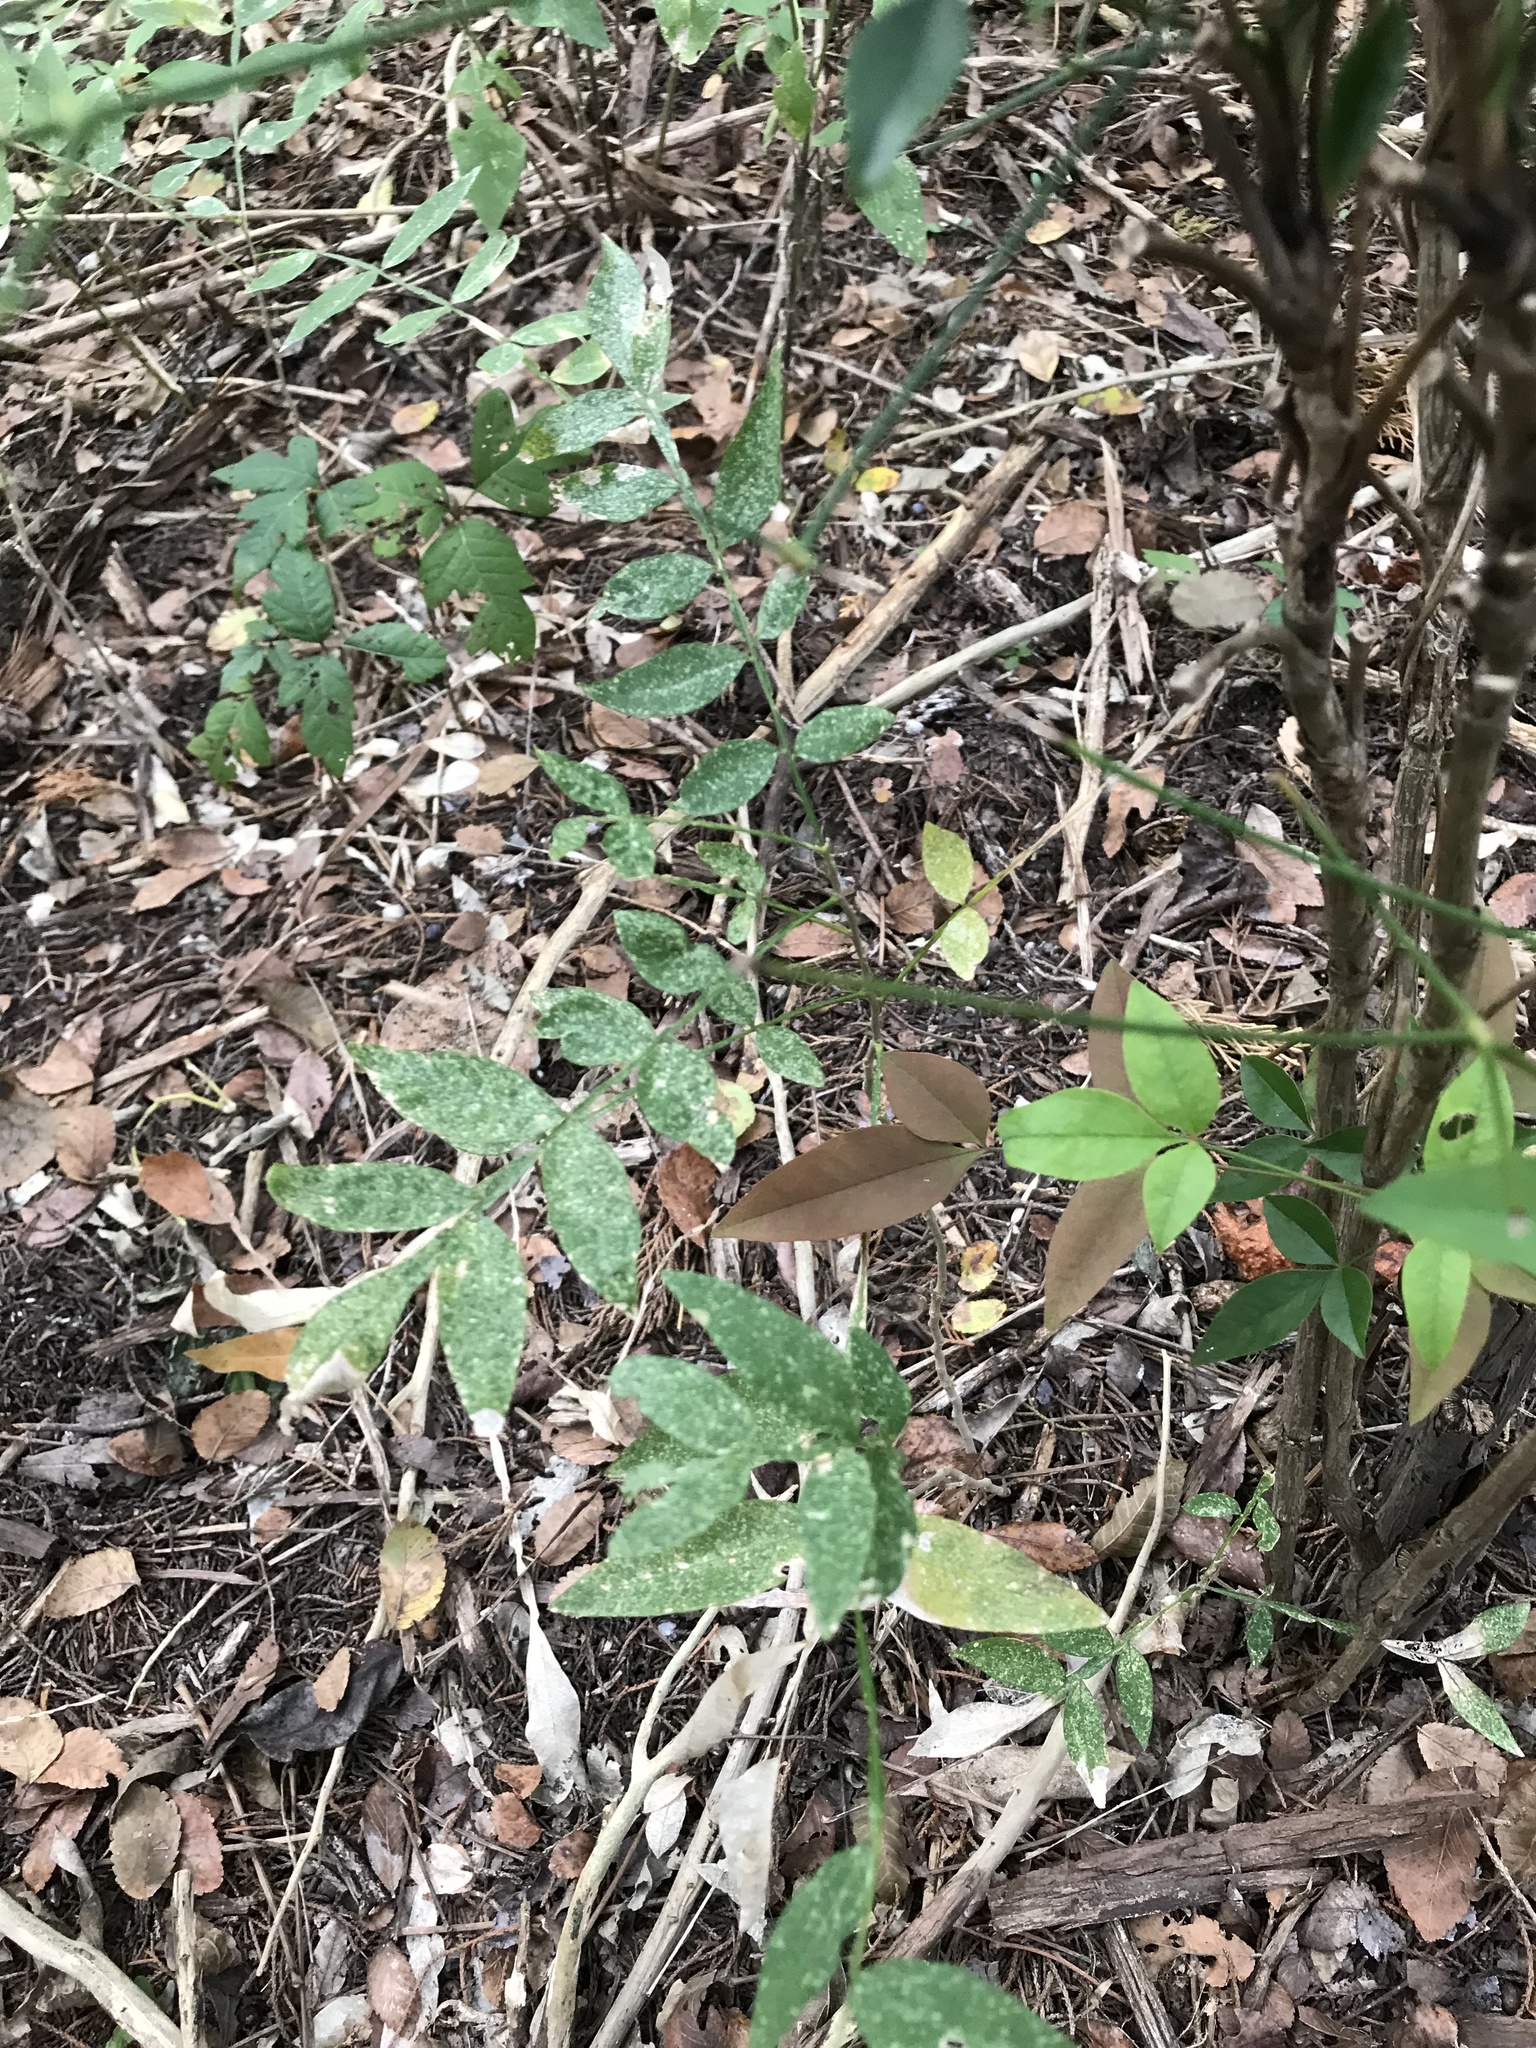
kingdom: Plantae
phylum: Tracheophyta
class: Magnoliopsida
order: Sapindales
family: Sapindaceae
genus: Sapindus
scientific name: Sapindus drummondii
